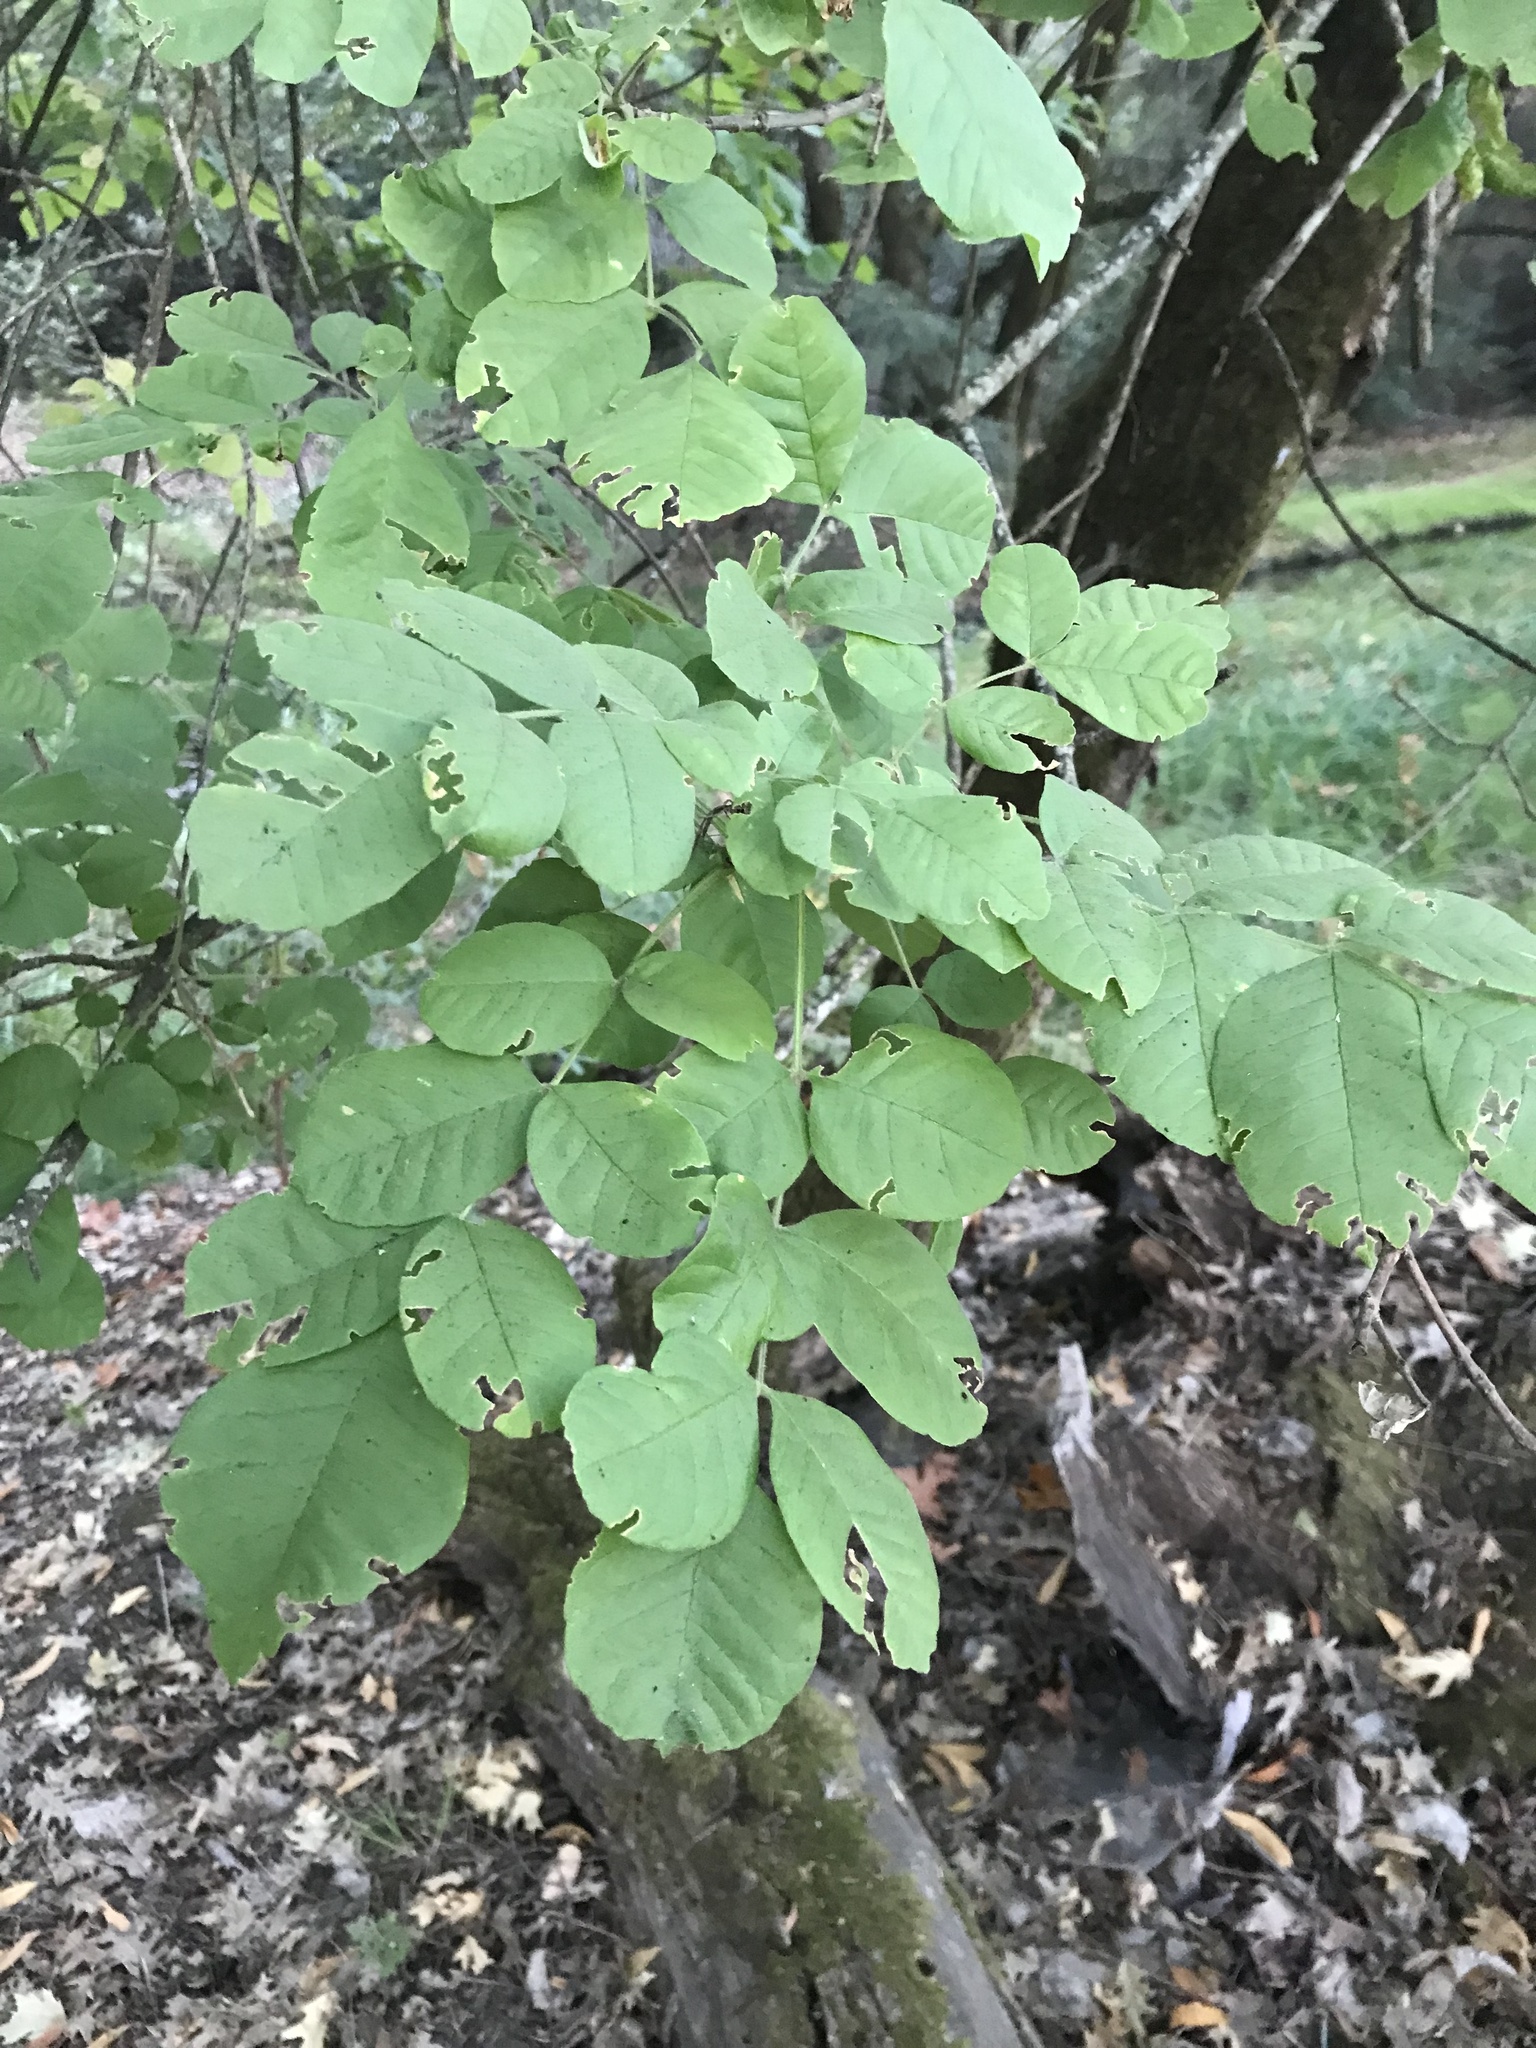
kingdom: Plantae
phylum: Tracheophyta
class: Magnoliopsida
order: Lamiales
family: Oleaceae
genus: Fraxinus
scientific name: Fraxinus latifolia
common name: Oregon ash
